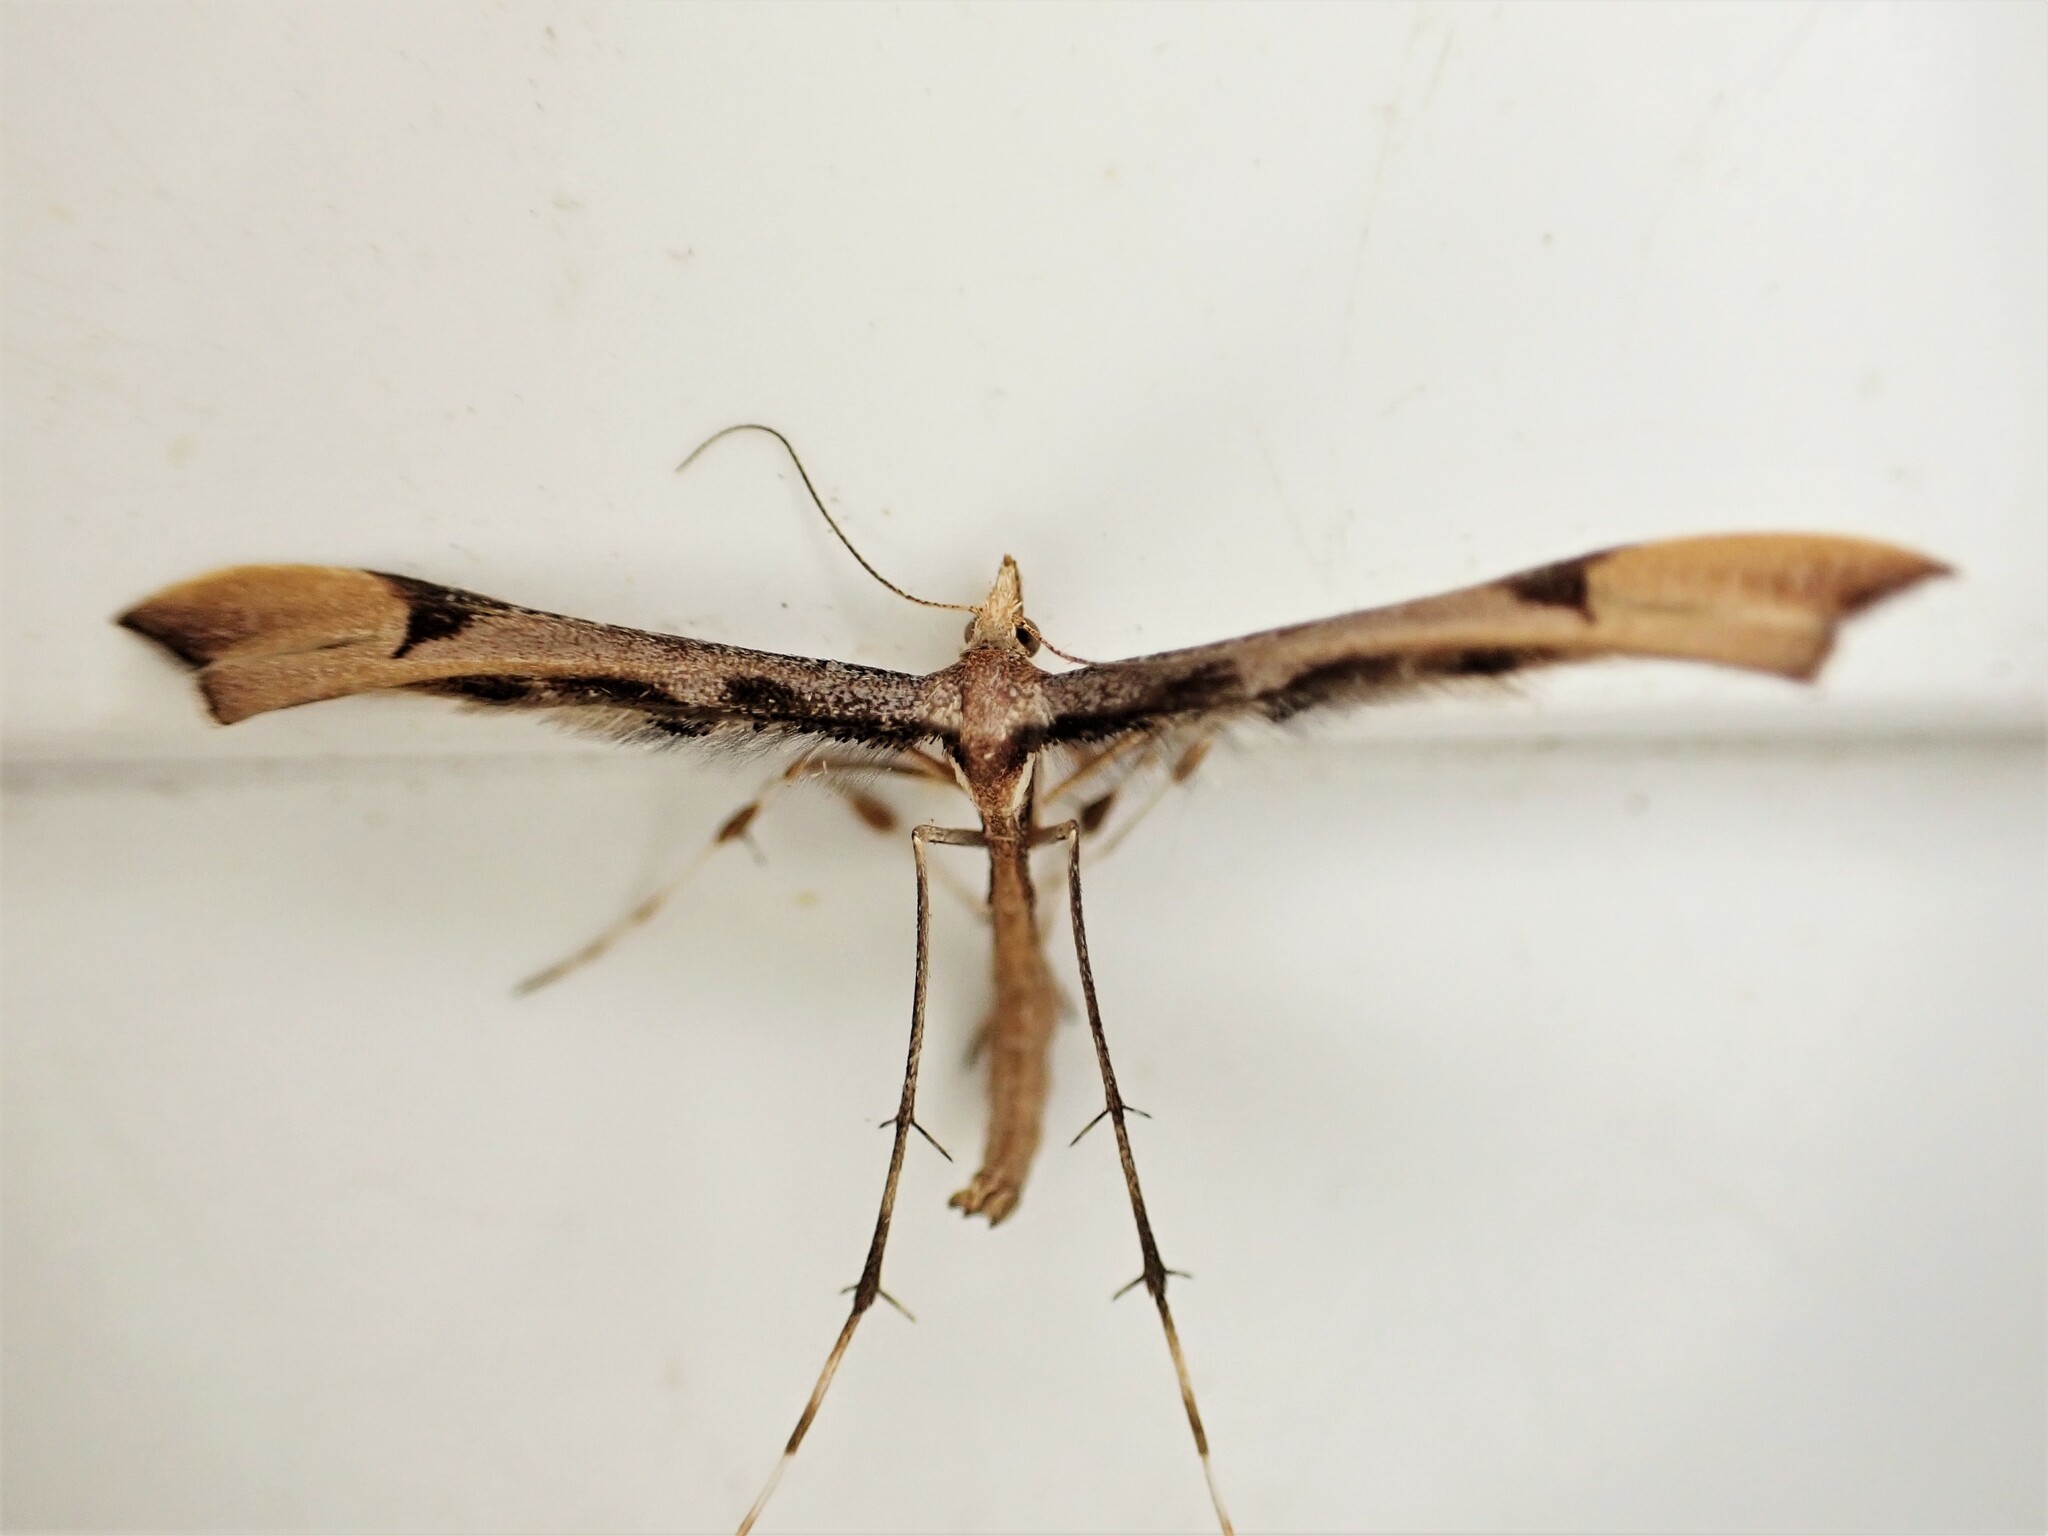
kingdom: Animalia
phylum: Arthropoda
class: Insecta
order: Lepidoptera
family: Pterophoridae
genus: Amblyptilia
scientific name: Amblyptilia heliastis
